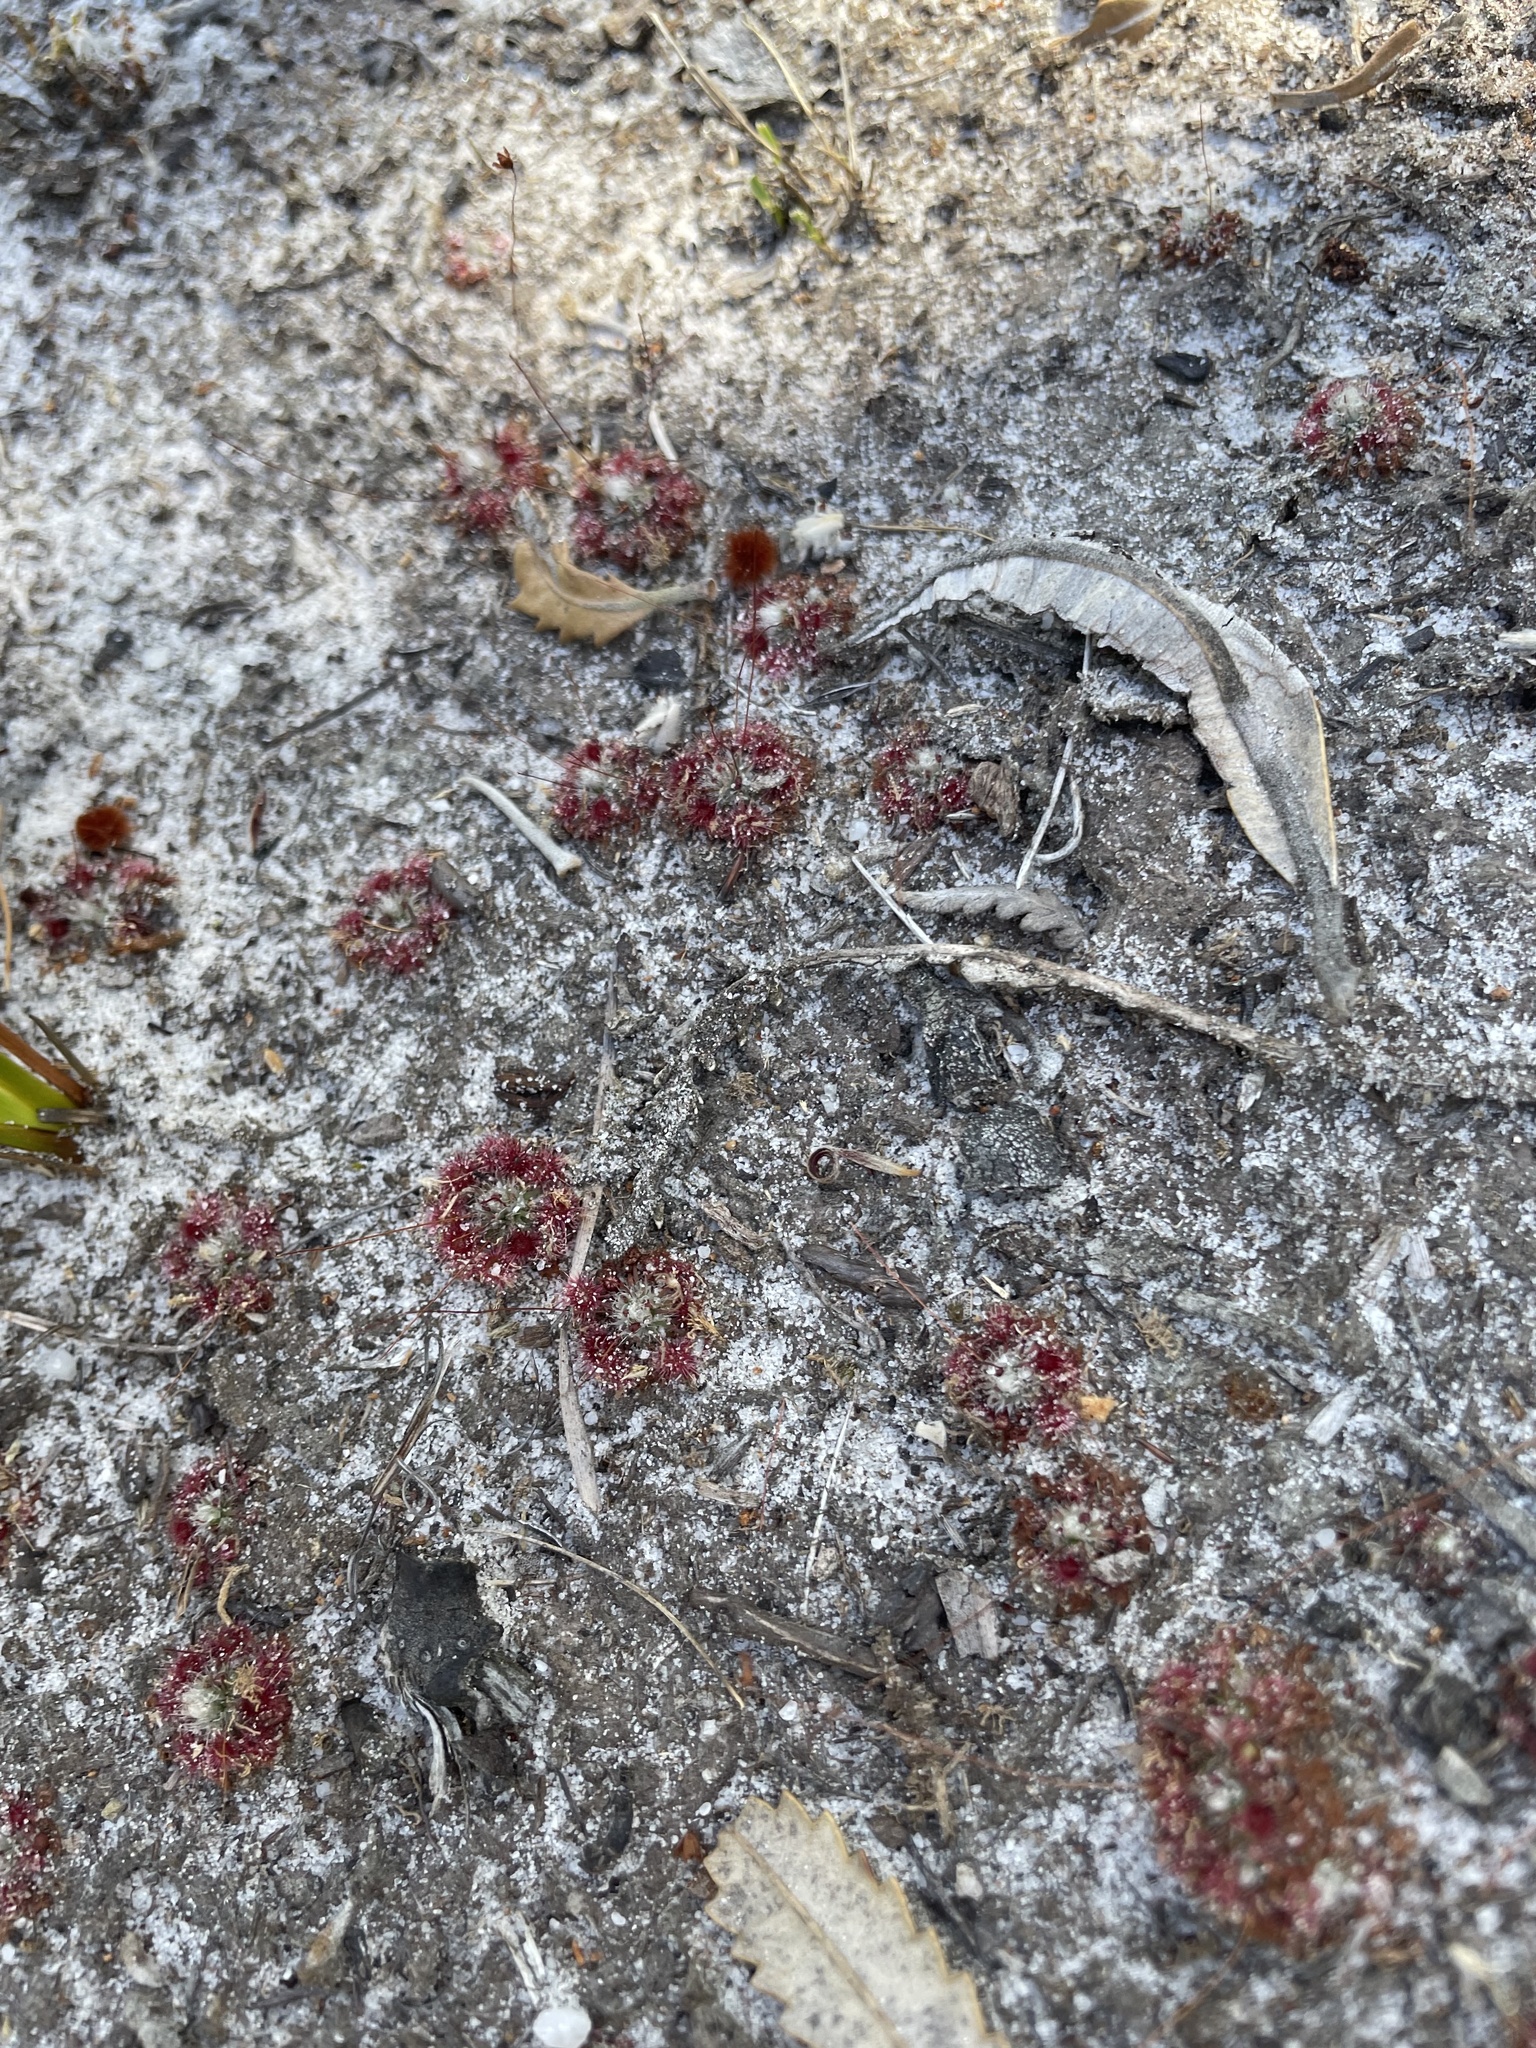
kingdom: Plantae
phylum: Tracheophyta
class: Magnoliopsida
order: Caryophyllales
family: Droseraceae
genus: Drosera
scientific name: Drosera pygmaea
